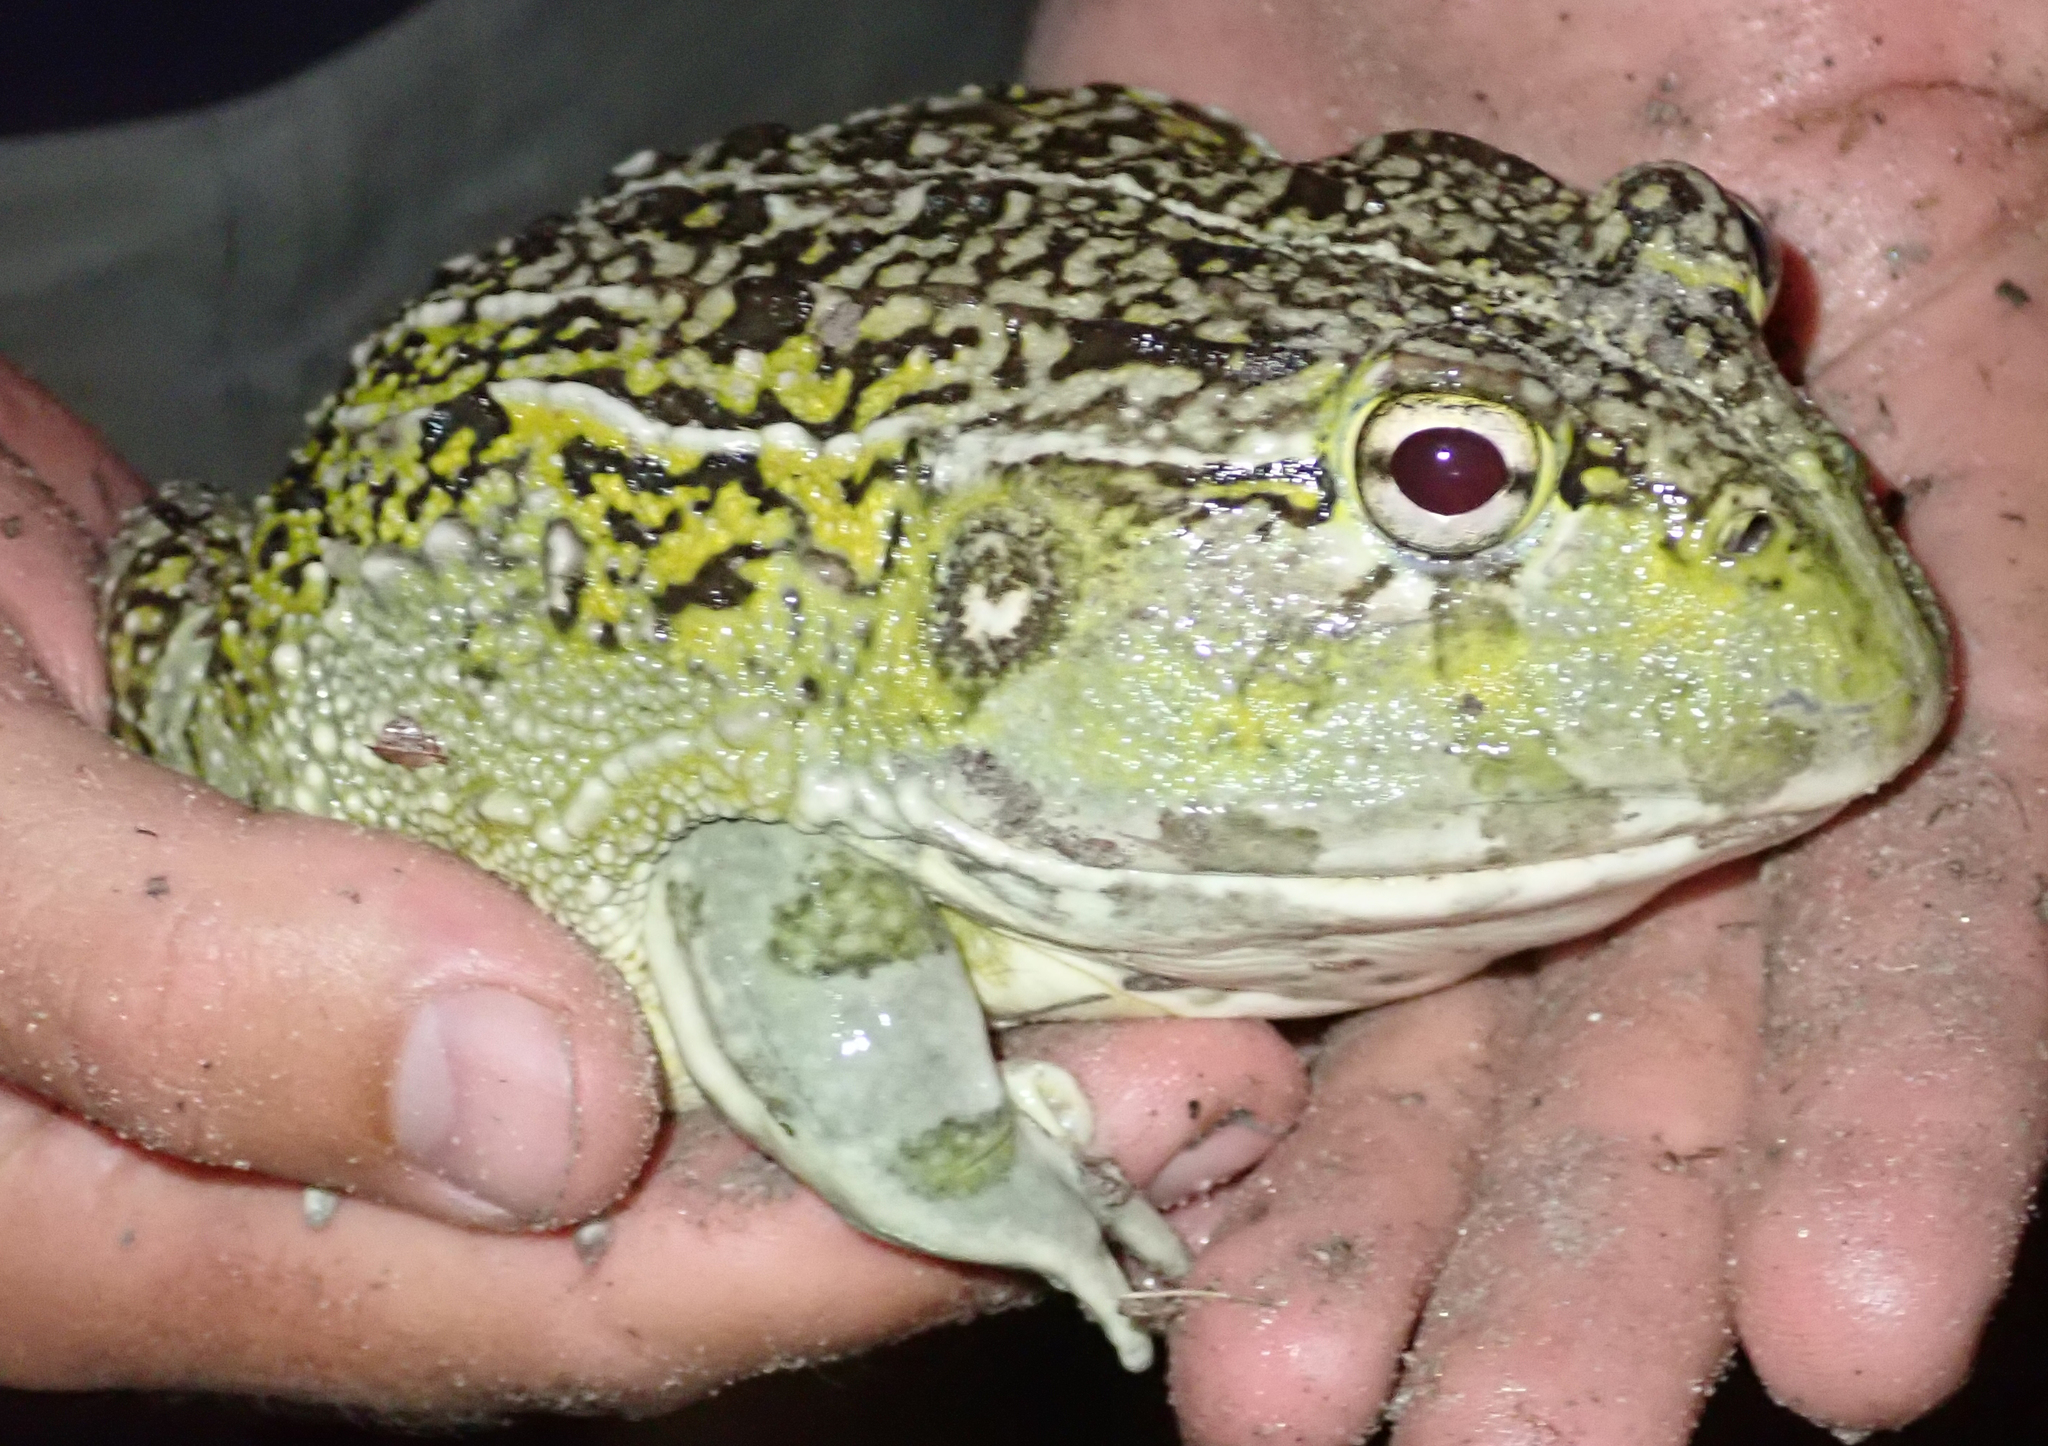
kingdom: Animalia
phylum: Chordata
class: Amphibia
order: Anura
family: Pyxicephalidae
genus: Pyxicephalus
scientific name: Pyxicephalus
